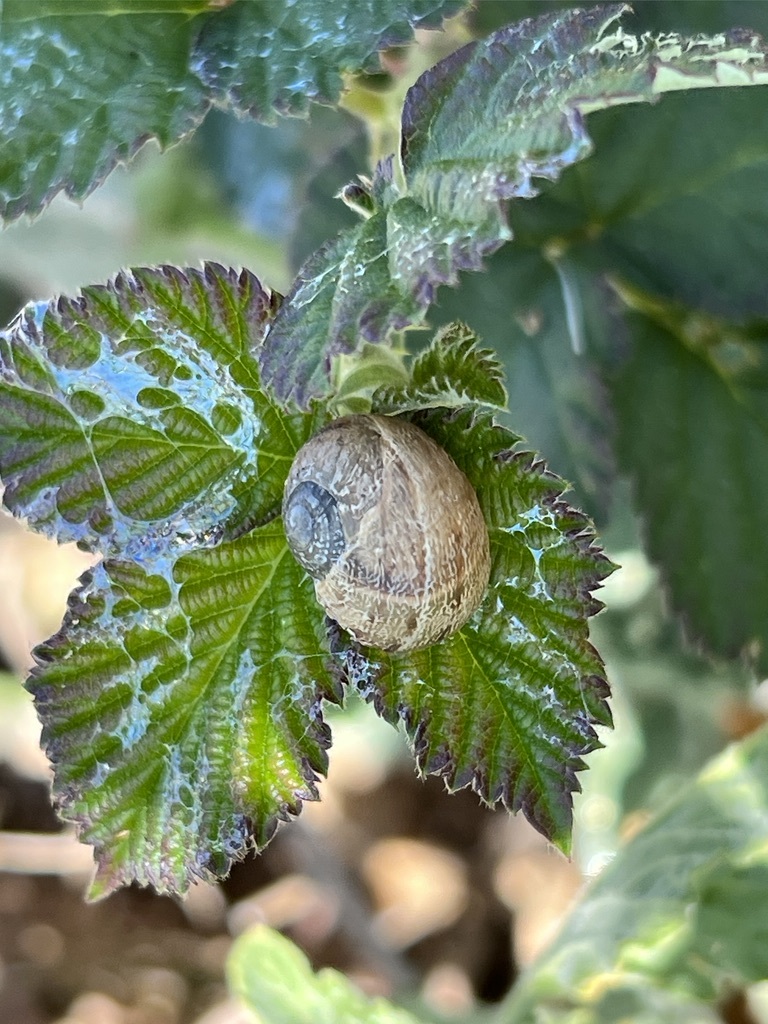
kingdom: Animalia
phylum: Mollusca
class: Gastropoda
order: Stylommatophora
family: Helicidae
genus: Cornu
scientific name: Cornu aspersum
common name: Brown garden snail
